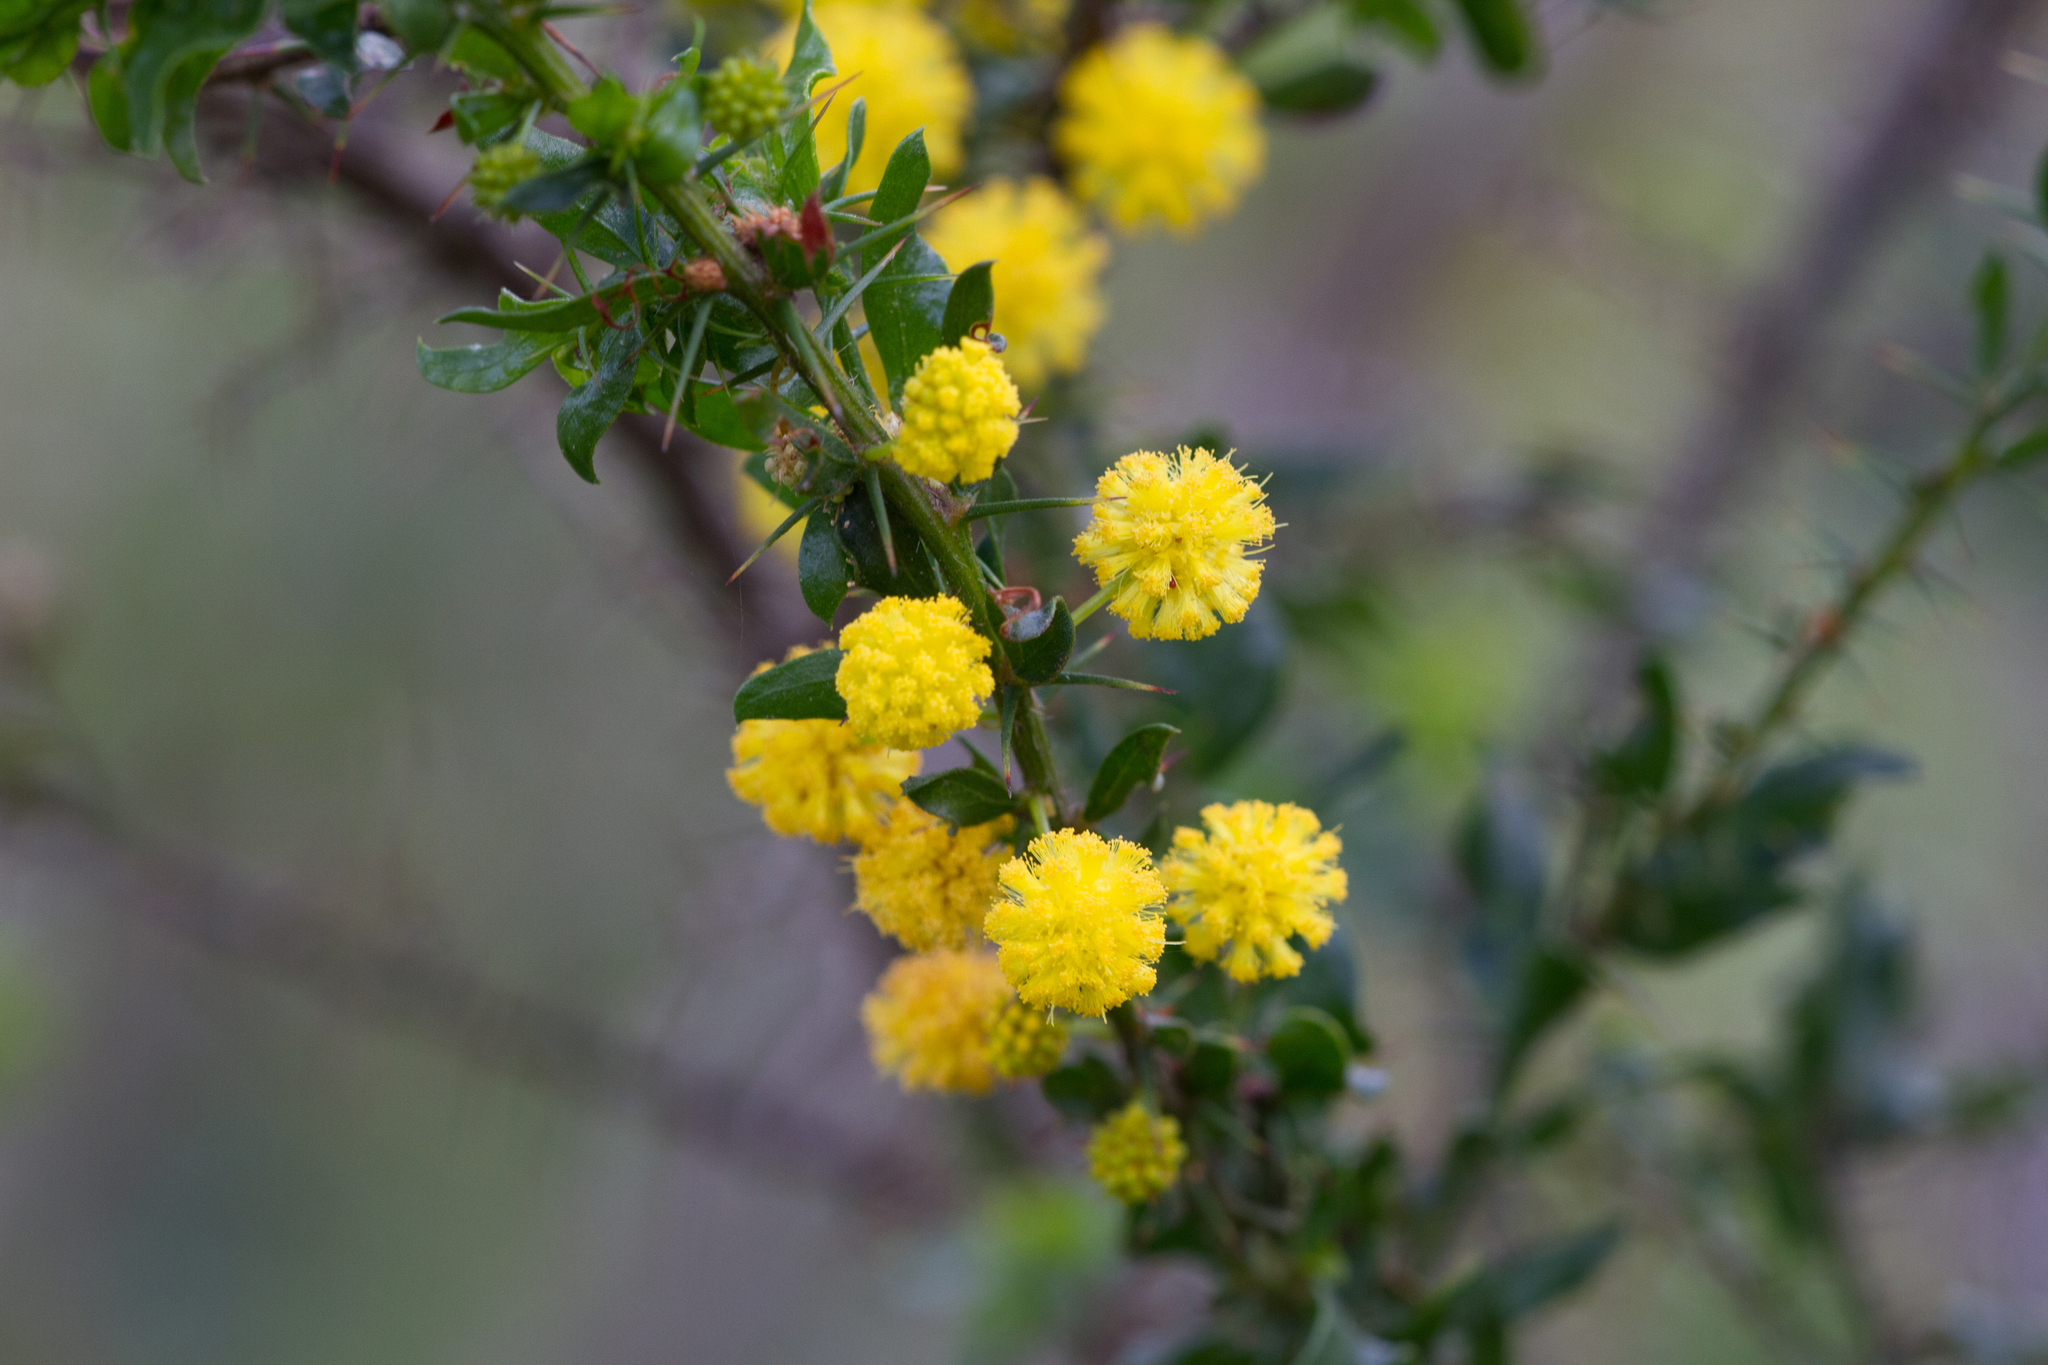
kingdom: Plantae
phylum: Tracheophyta
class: Magnoliopsida
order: Fabales
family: Fabaceae
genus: Acacia
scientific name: Acacia paradoxa
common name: Paradox acacia
